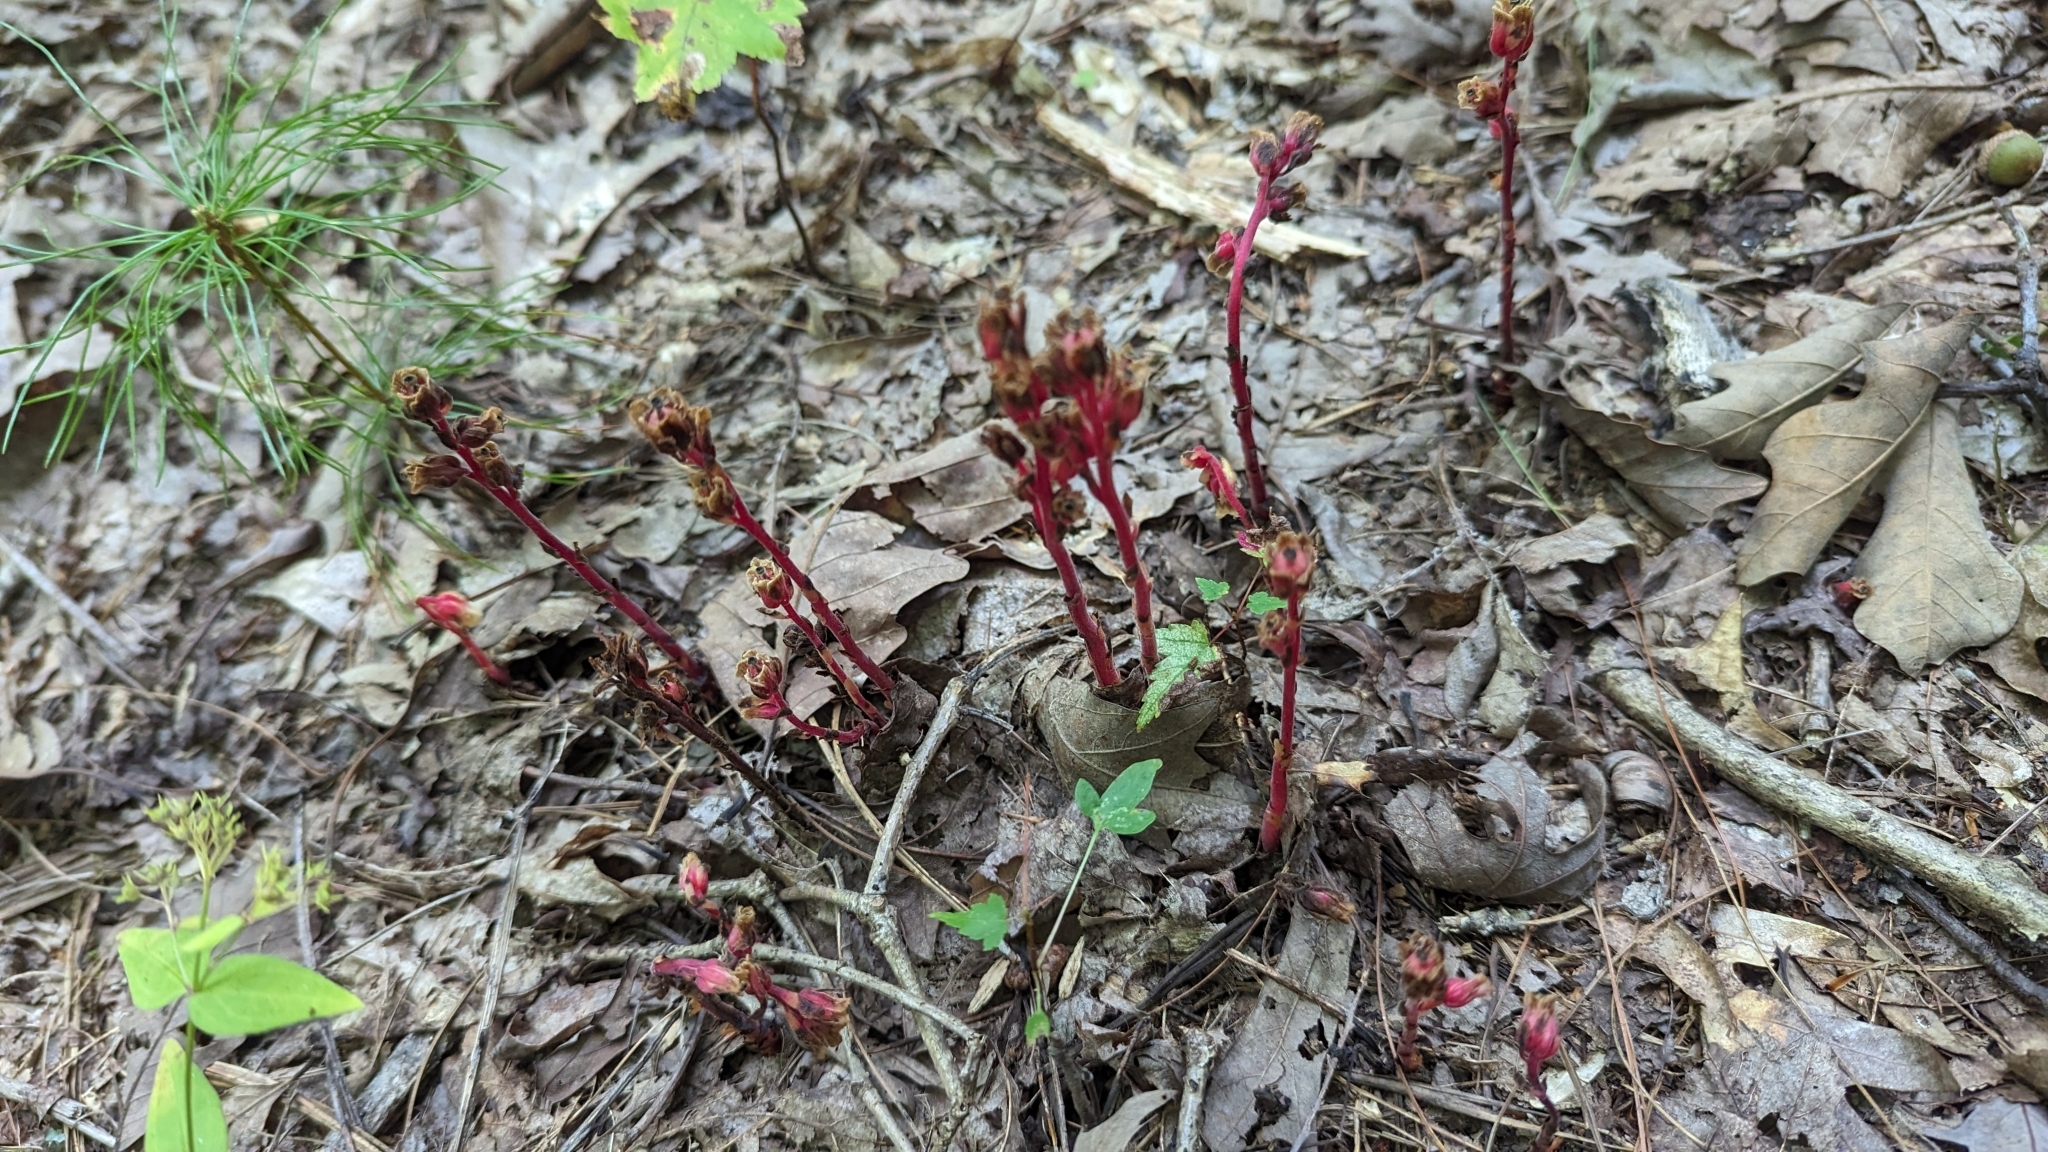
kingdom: Plantae
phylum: Tracheophyta
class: Magnoliopsida
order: Ericales
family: Ericaceae
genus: Hypopitys
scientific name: Hypopitys monotropa
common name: Yellow bird's-nest
